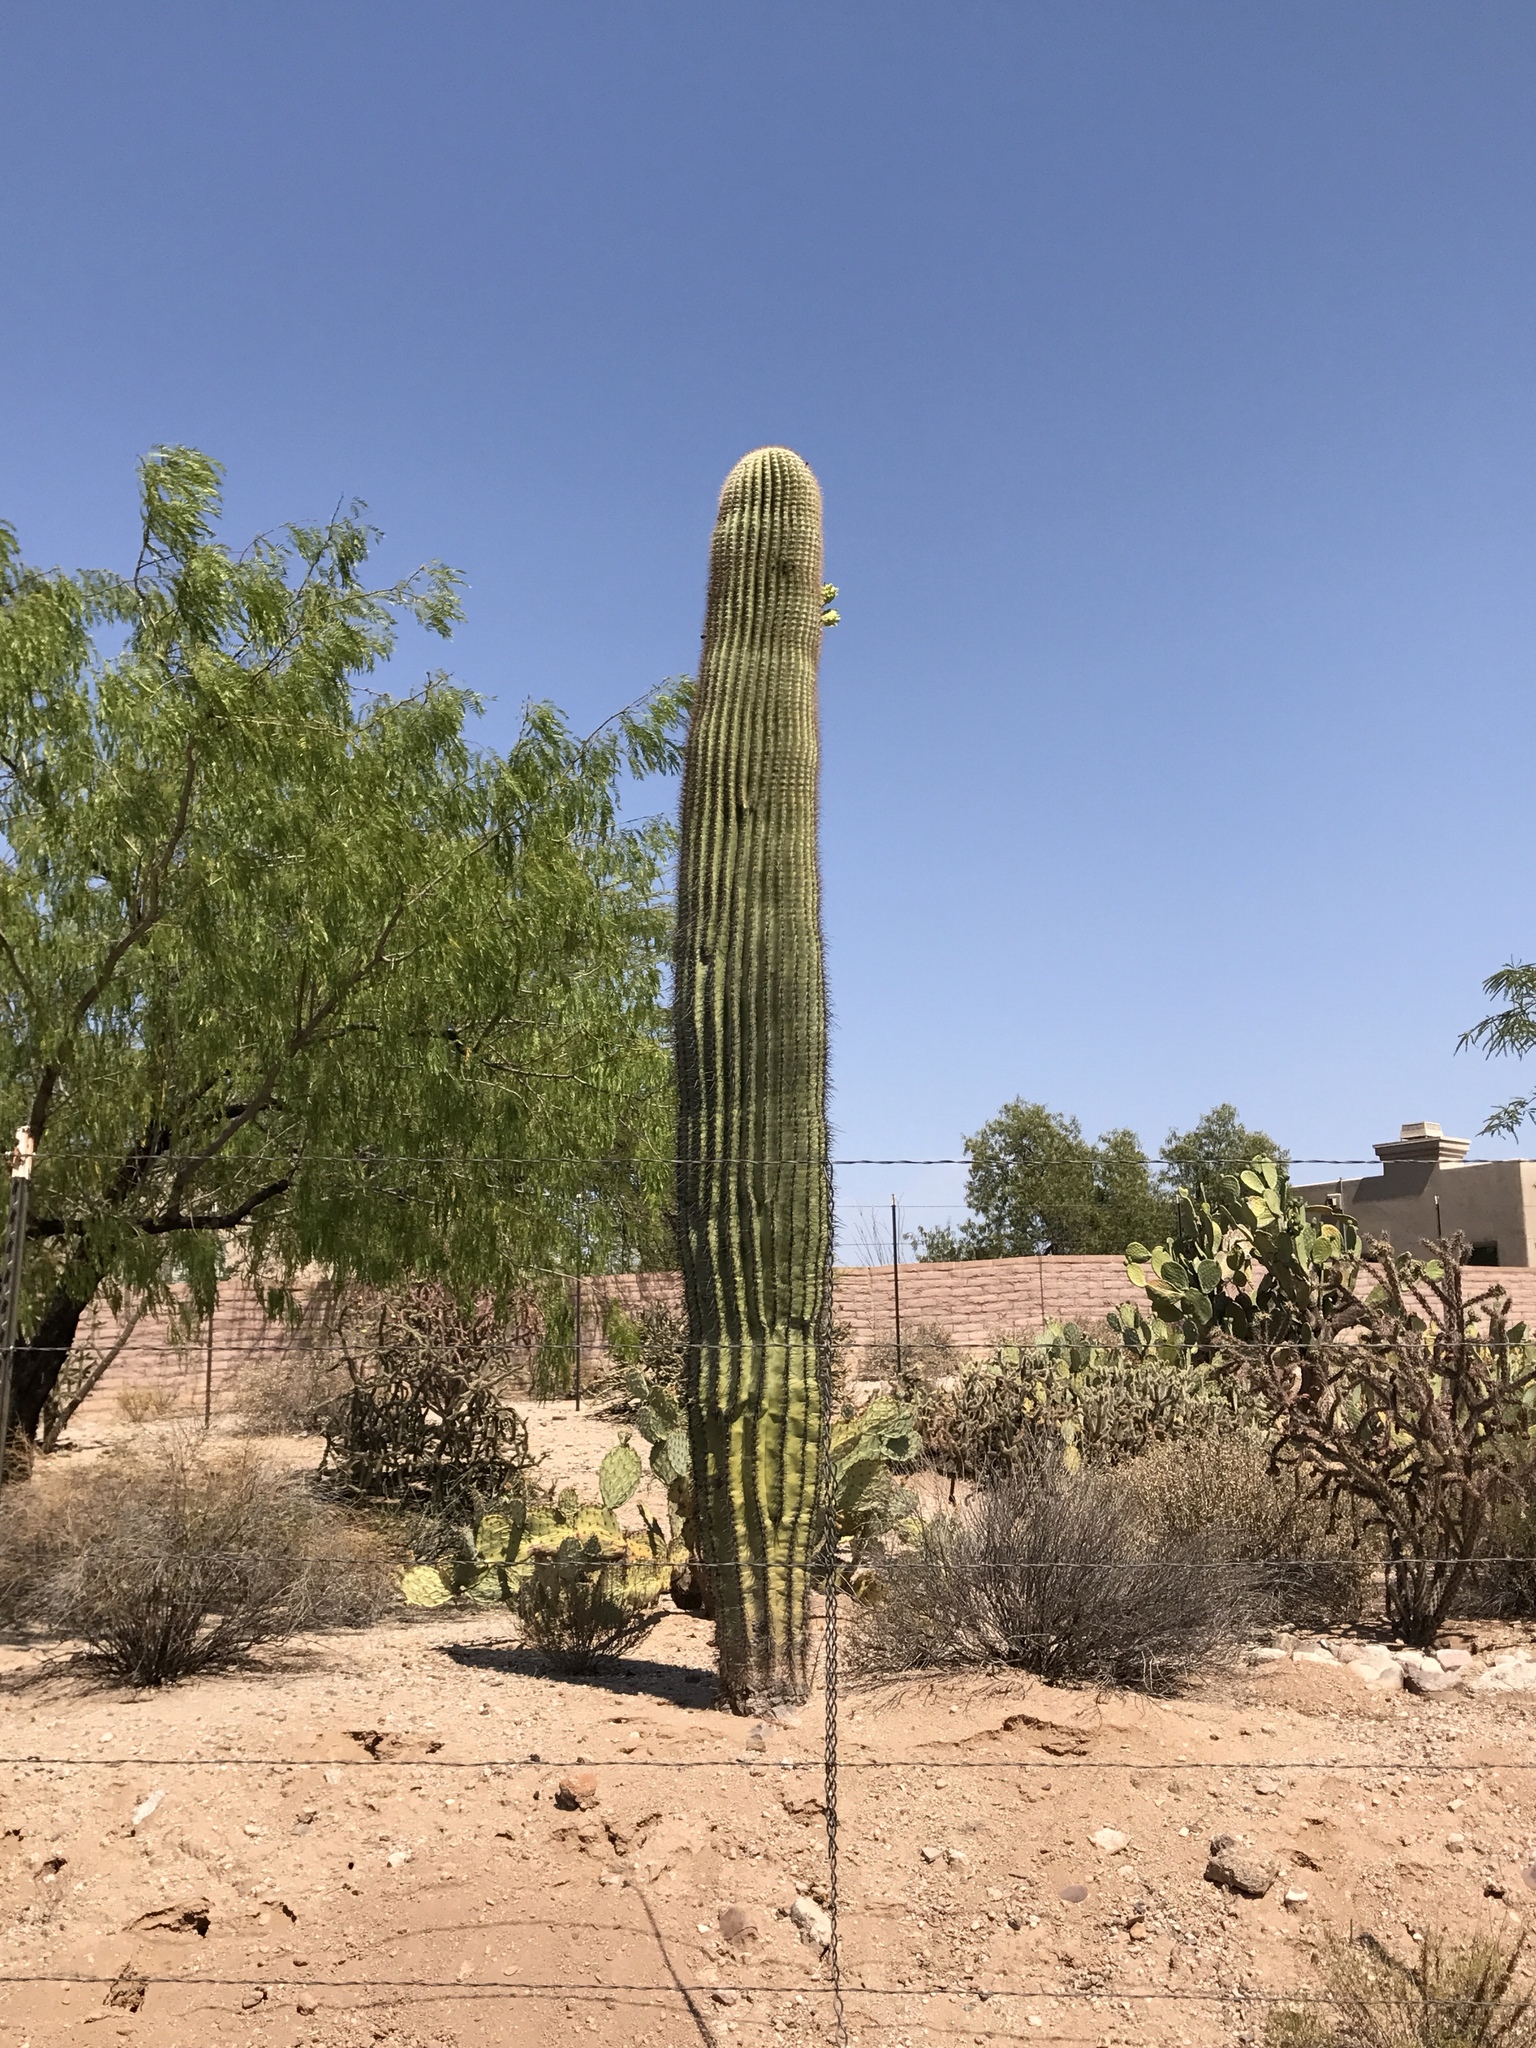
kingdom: Plantae
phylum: Tracheophyta
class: Magnoliopsida
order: Caryophyllales
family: Cactaceae
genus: Carnegiea
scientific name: Carnegiea gigantea
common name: Saguaro
